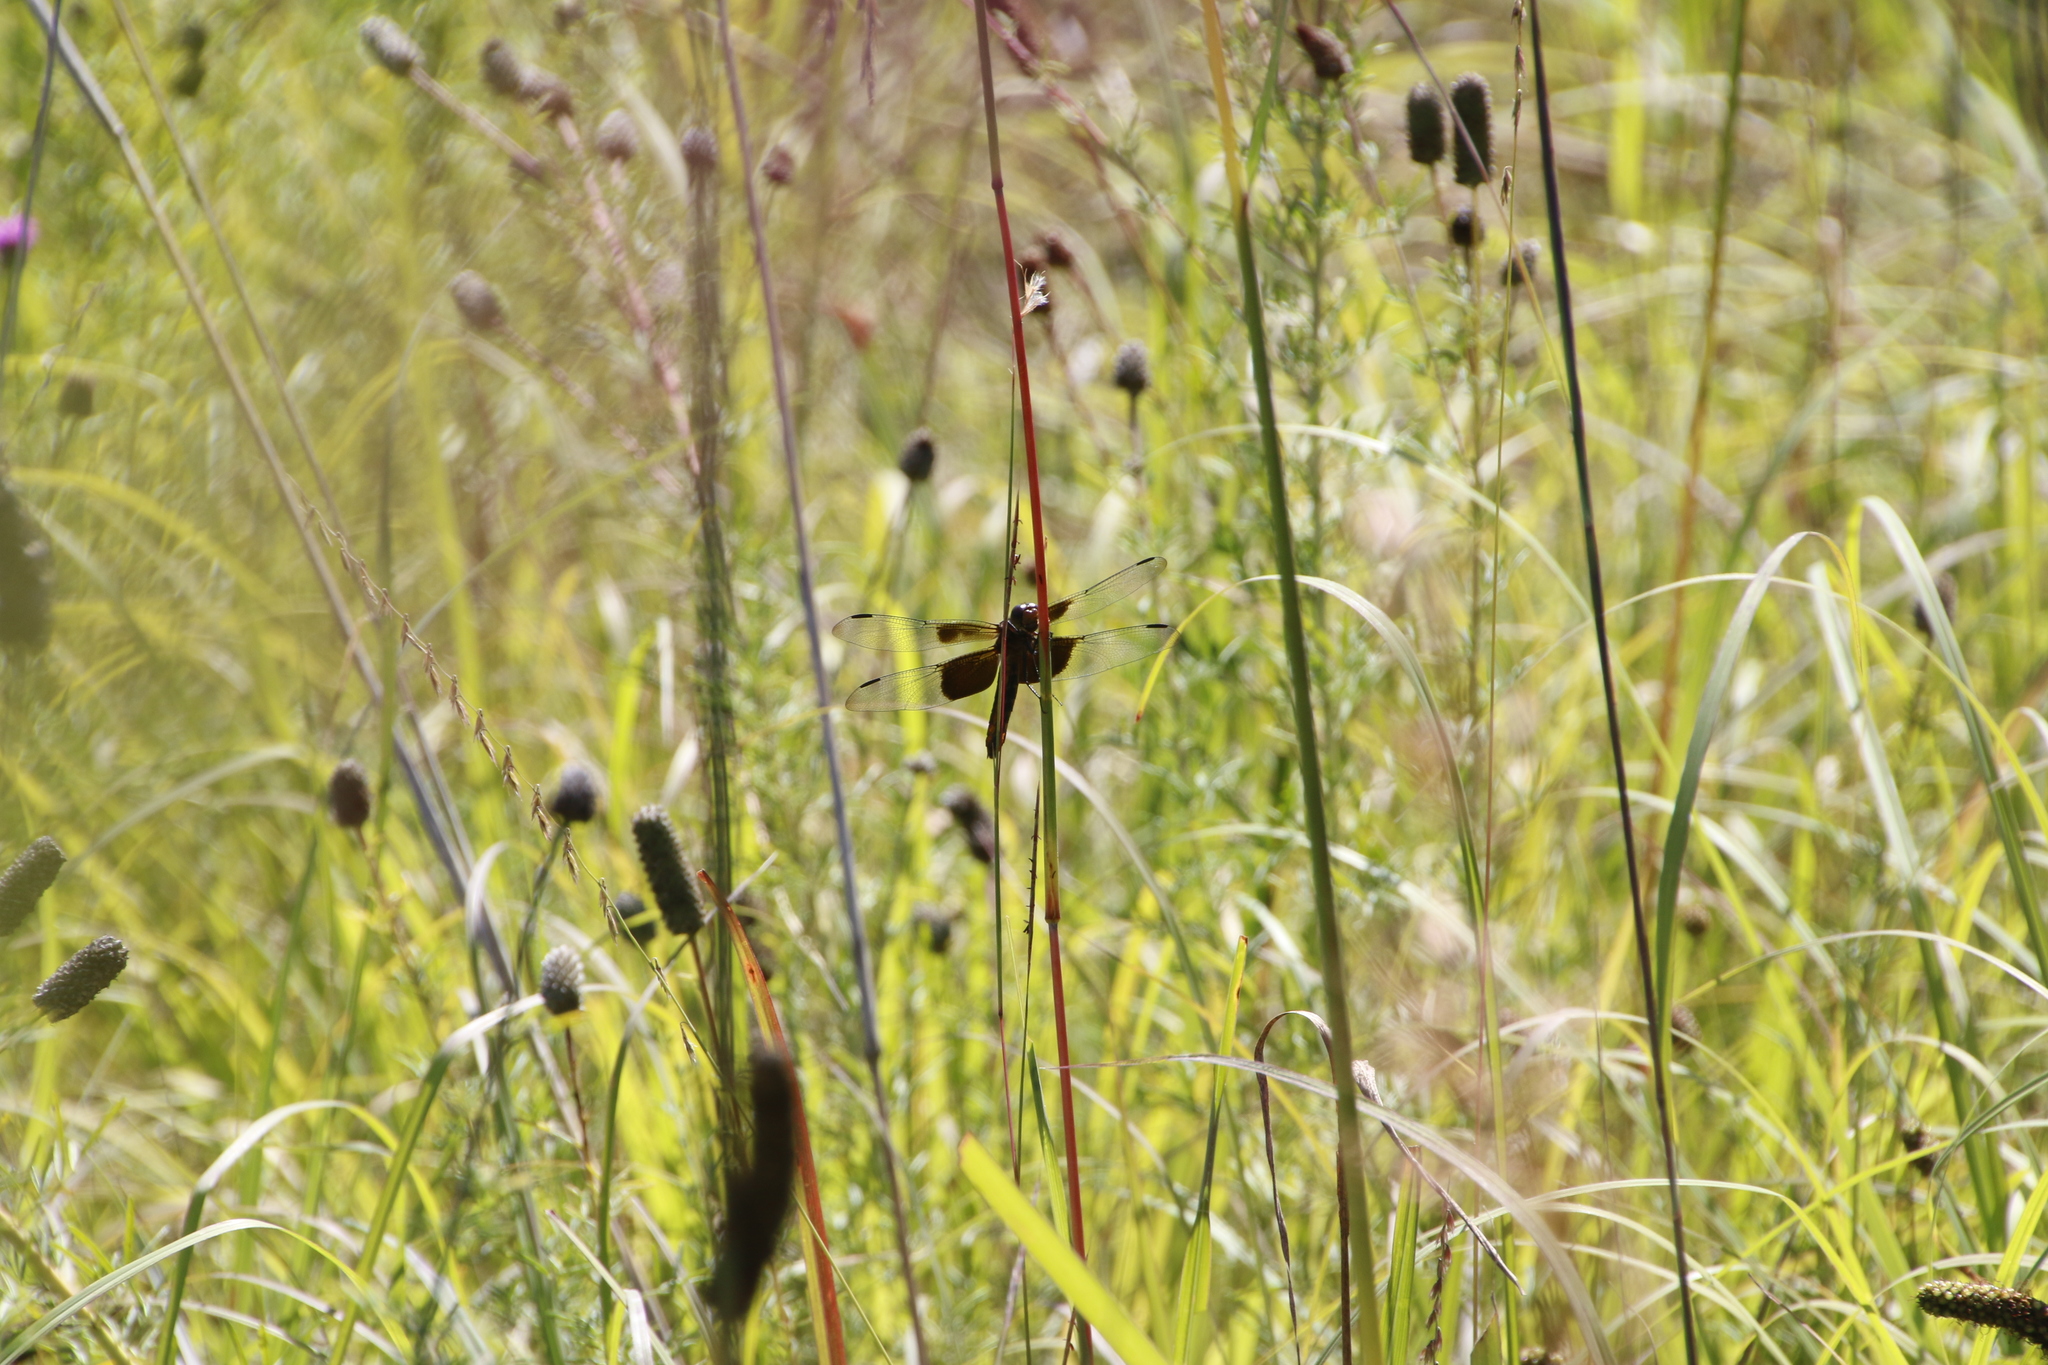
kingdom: Animalia
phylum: Arthropoda
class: Insecta
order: Odonata
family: Libellulidae
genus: Libellula
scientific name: Libellula luctuosa
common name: Widow skimmer
